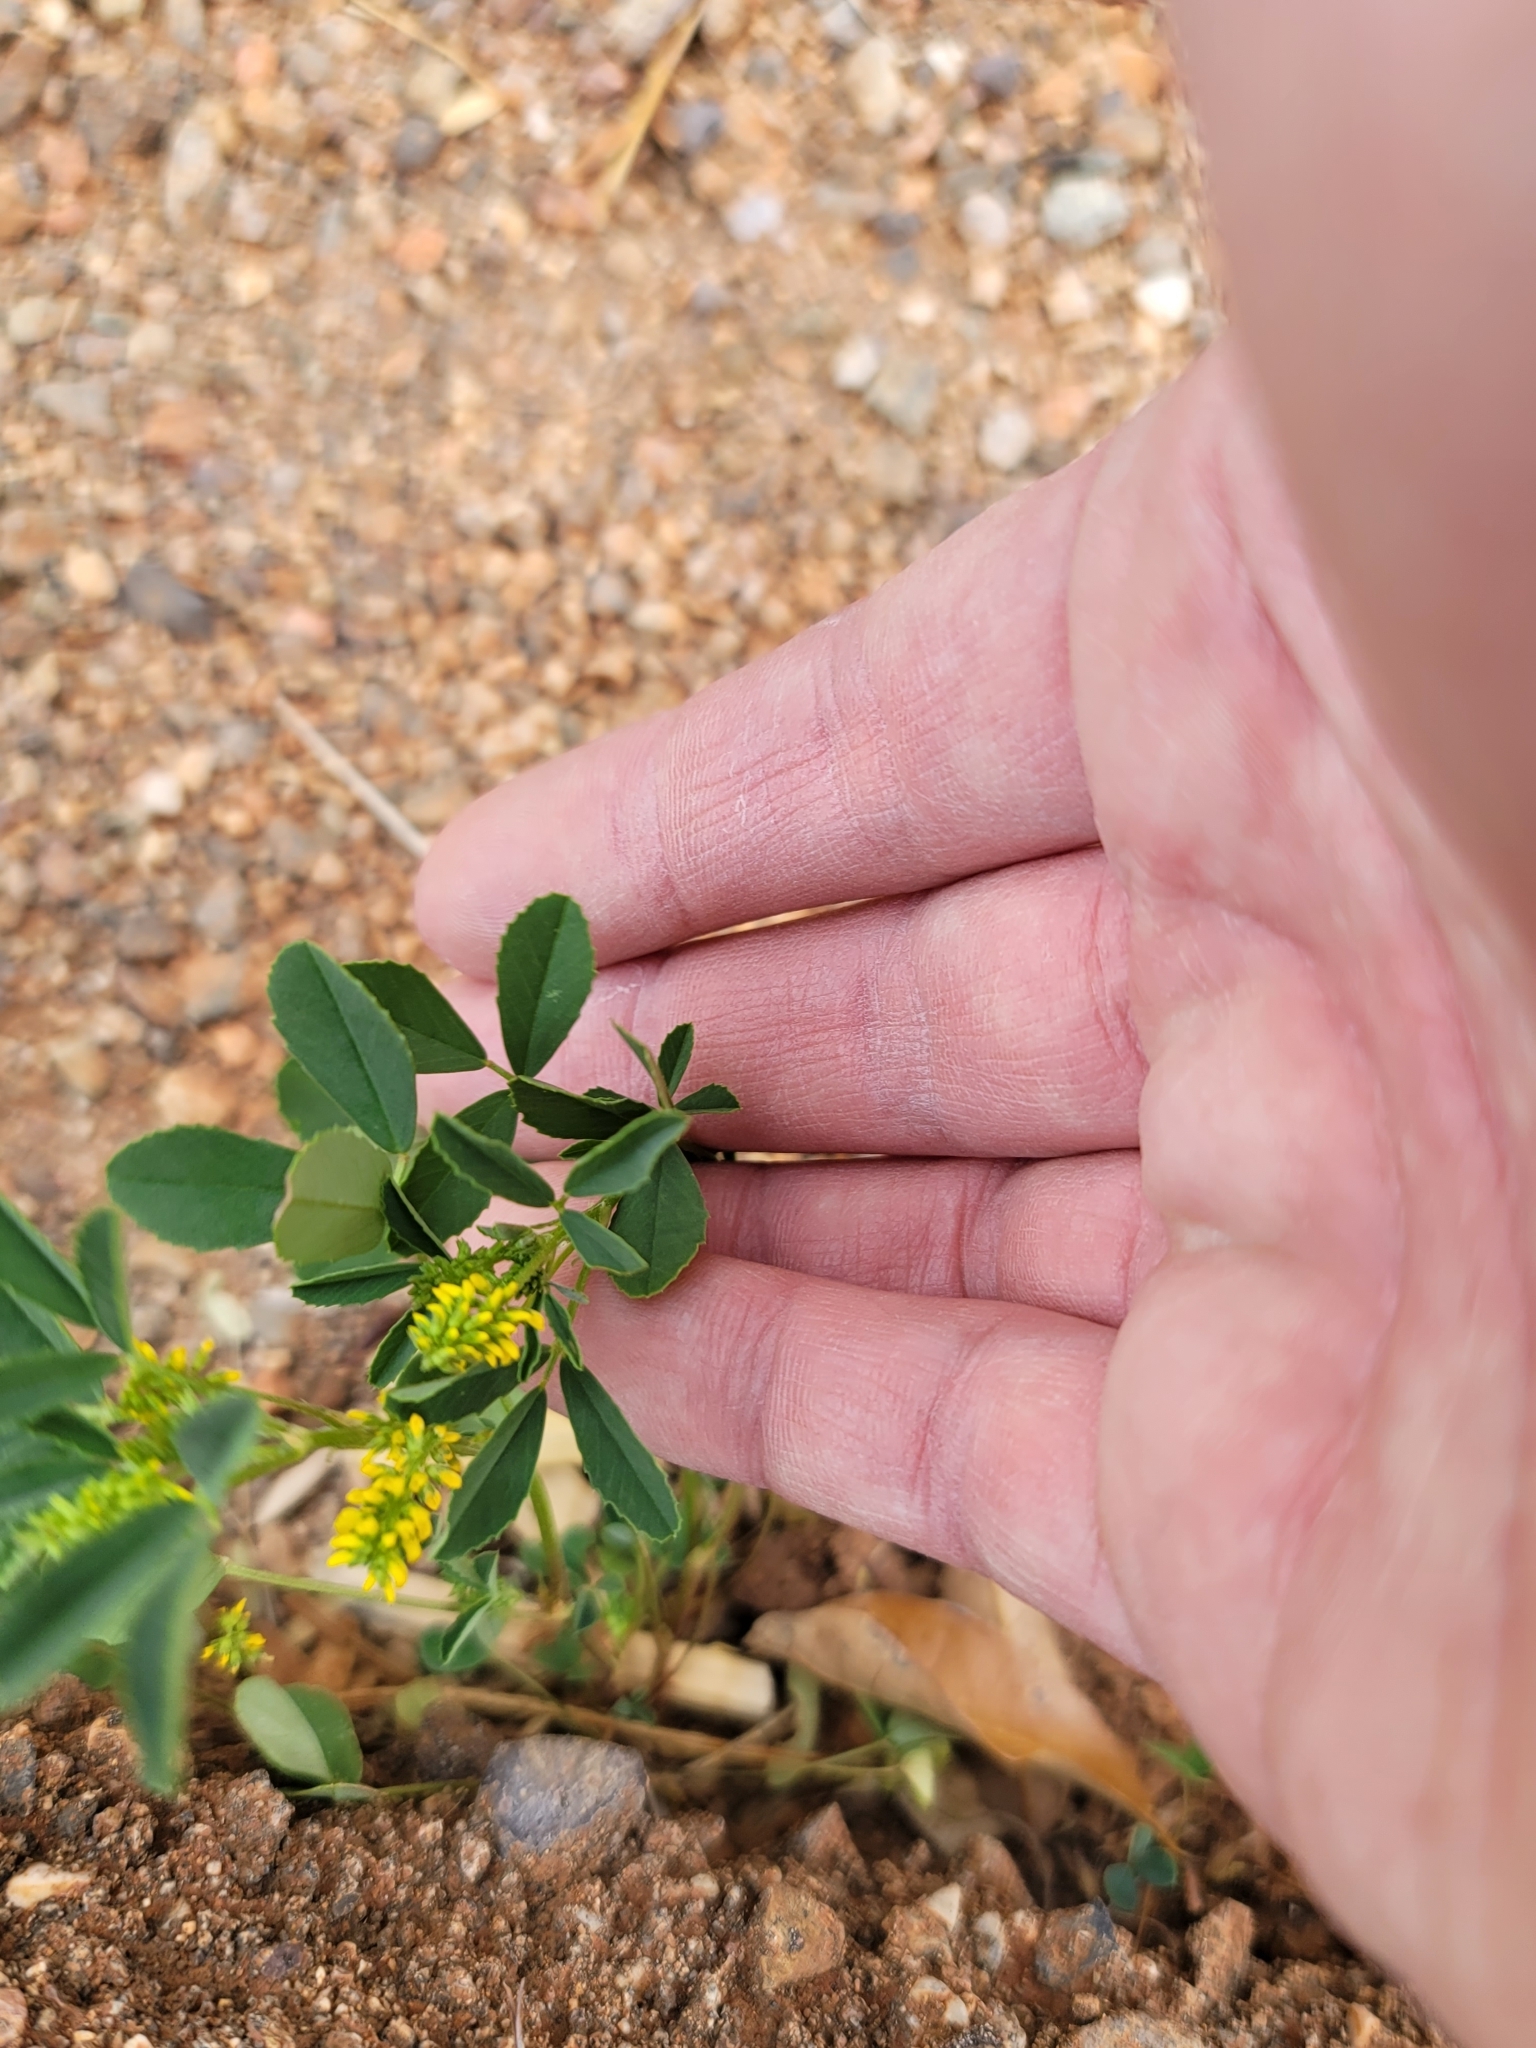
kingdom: Plantae
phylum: Tracheophyta
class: Magnoliopsida
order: Fabales
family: Fabaceae
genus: Melilotus
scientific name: Melilotus indicus
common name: Small melilot
